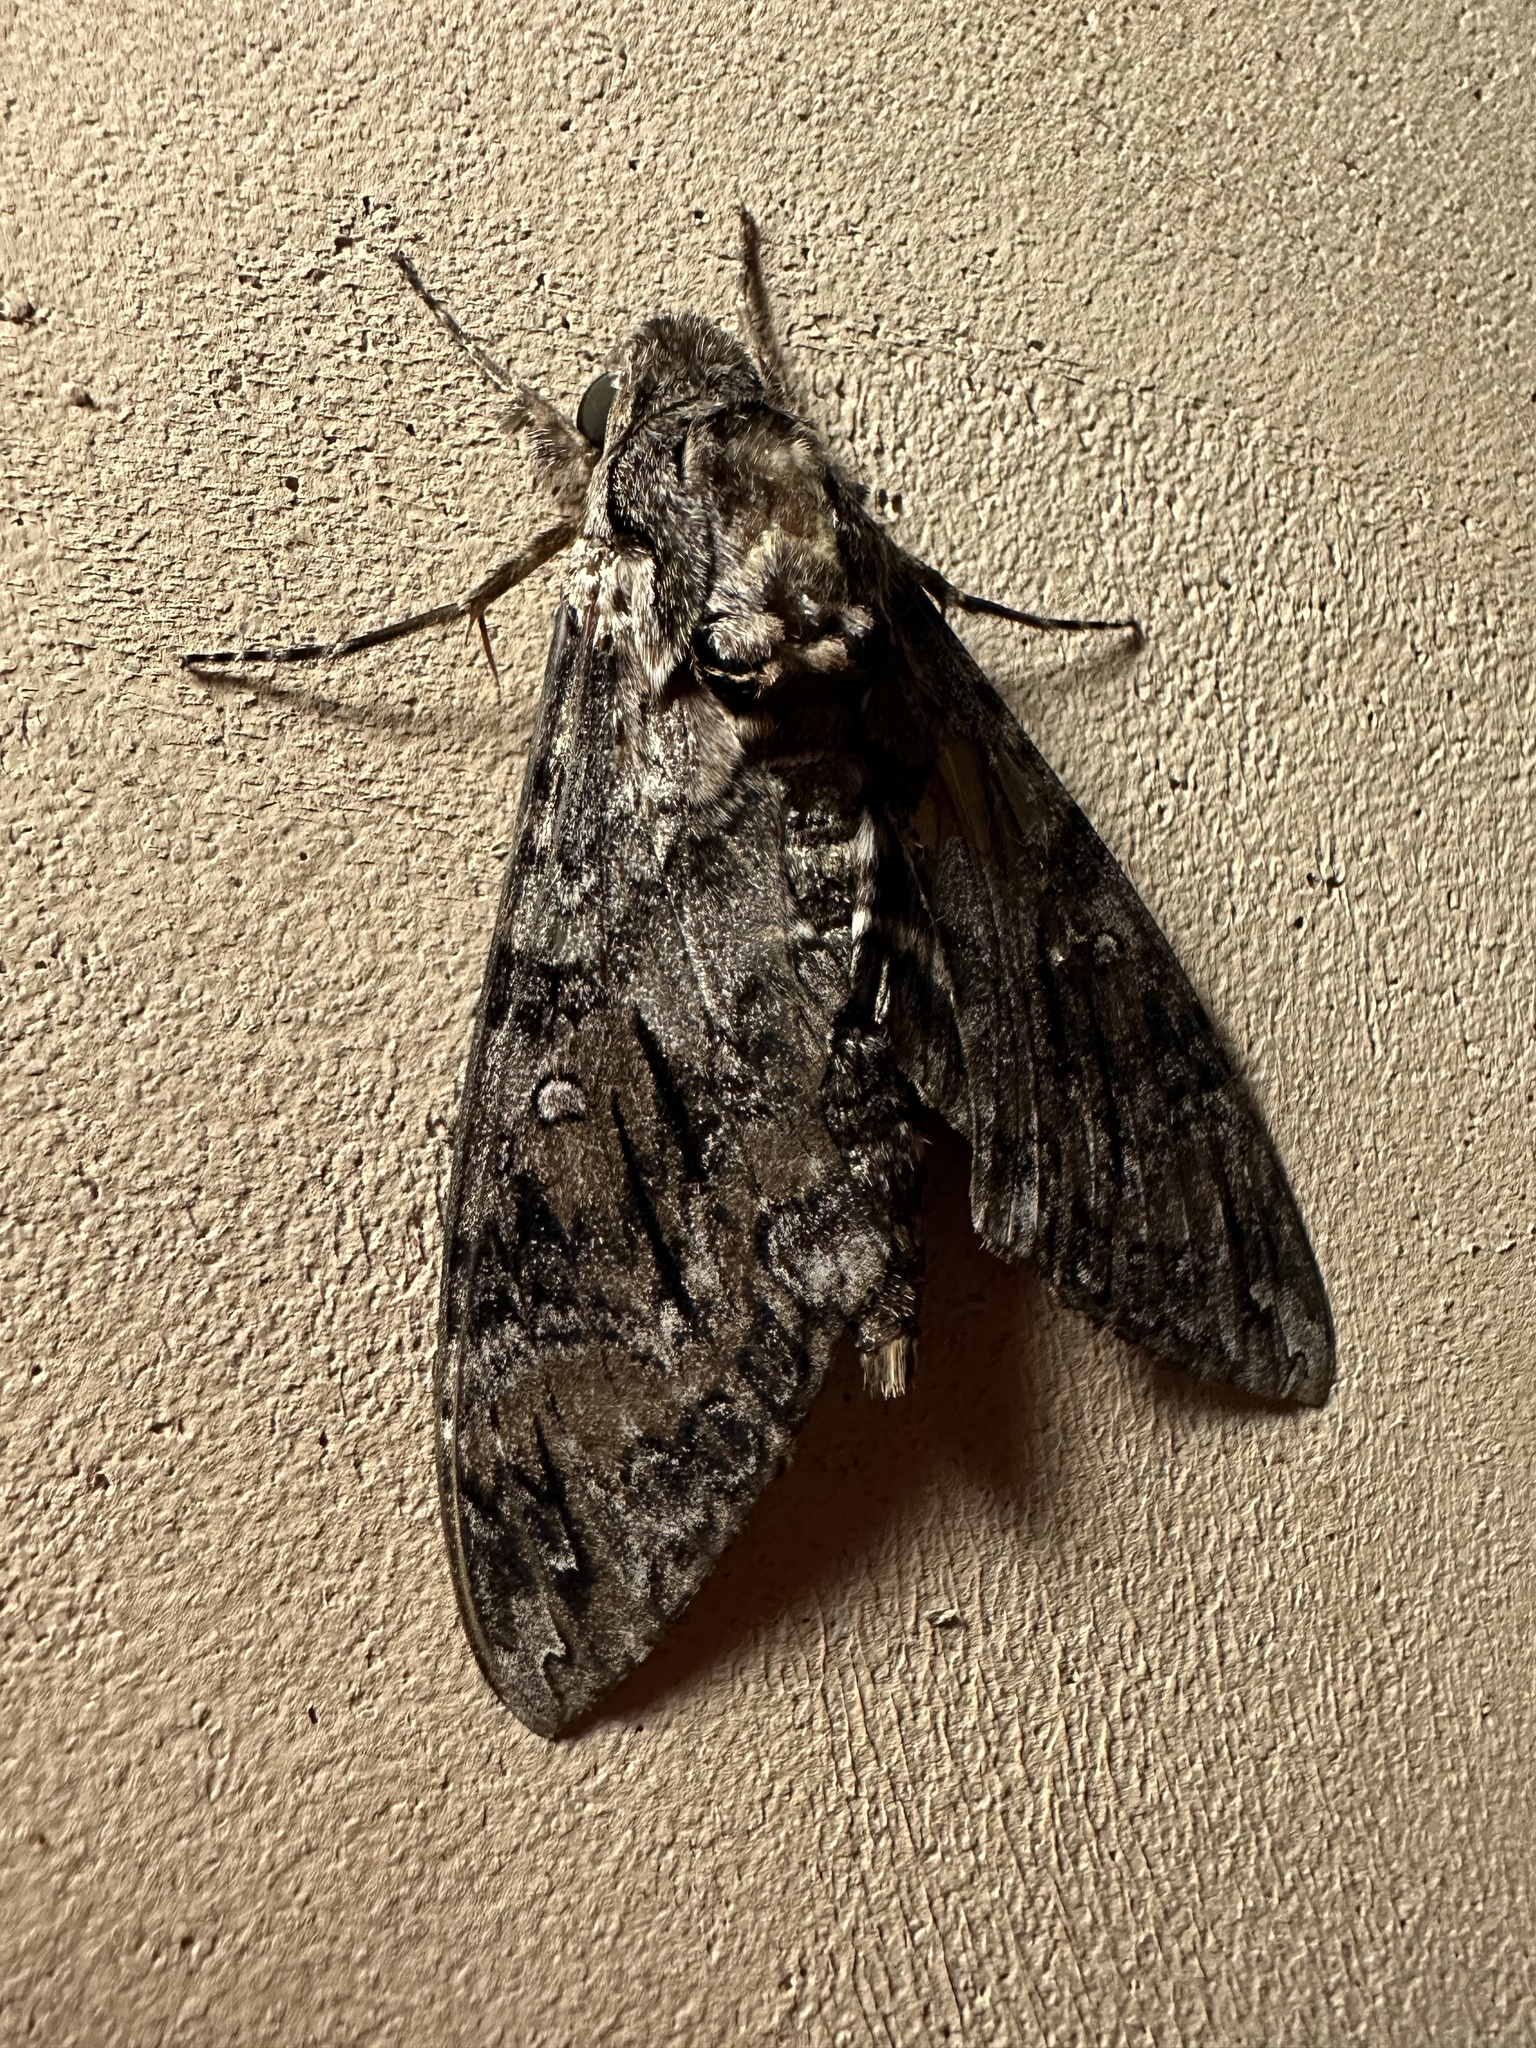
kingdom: Animalia
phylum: Arthropoda
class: Insecta
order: Lepidoptera
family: Sphingidae
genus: Manduca
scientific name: Manduca sexta
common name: Carolina sphinx
